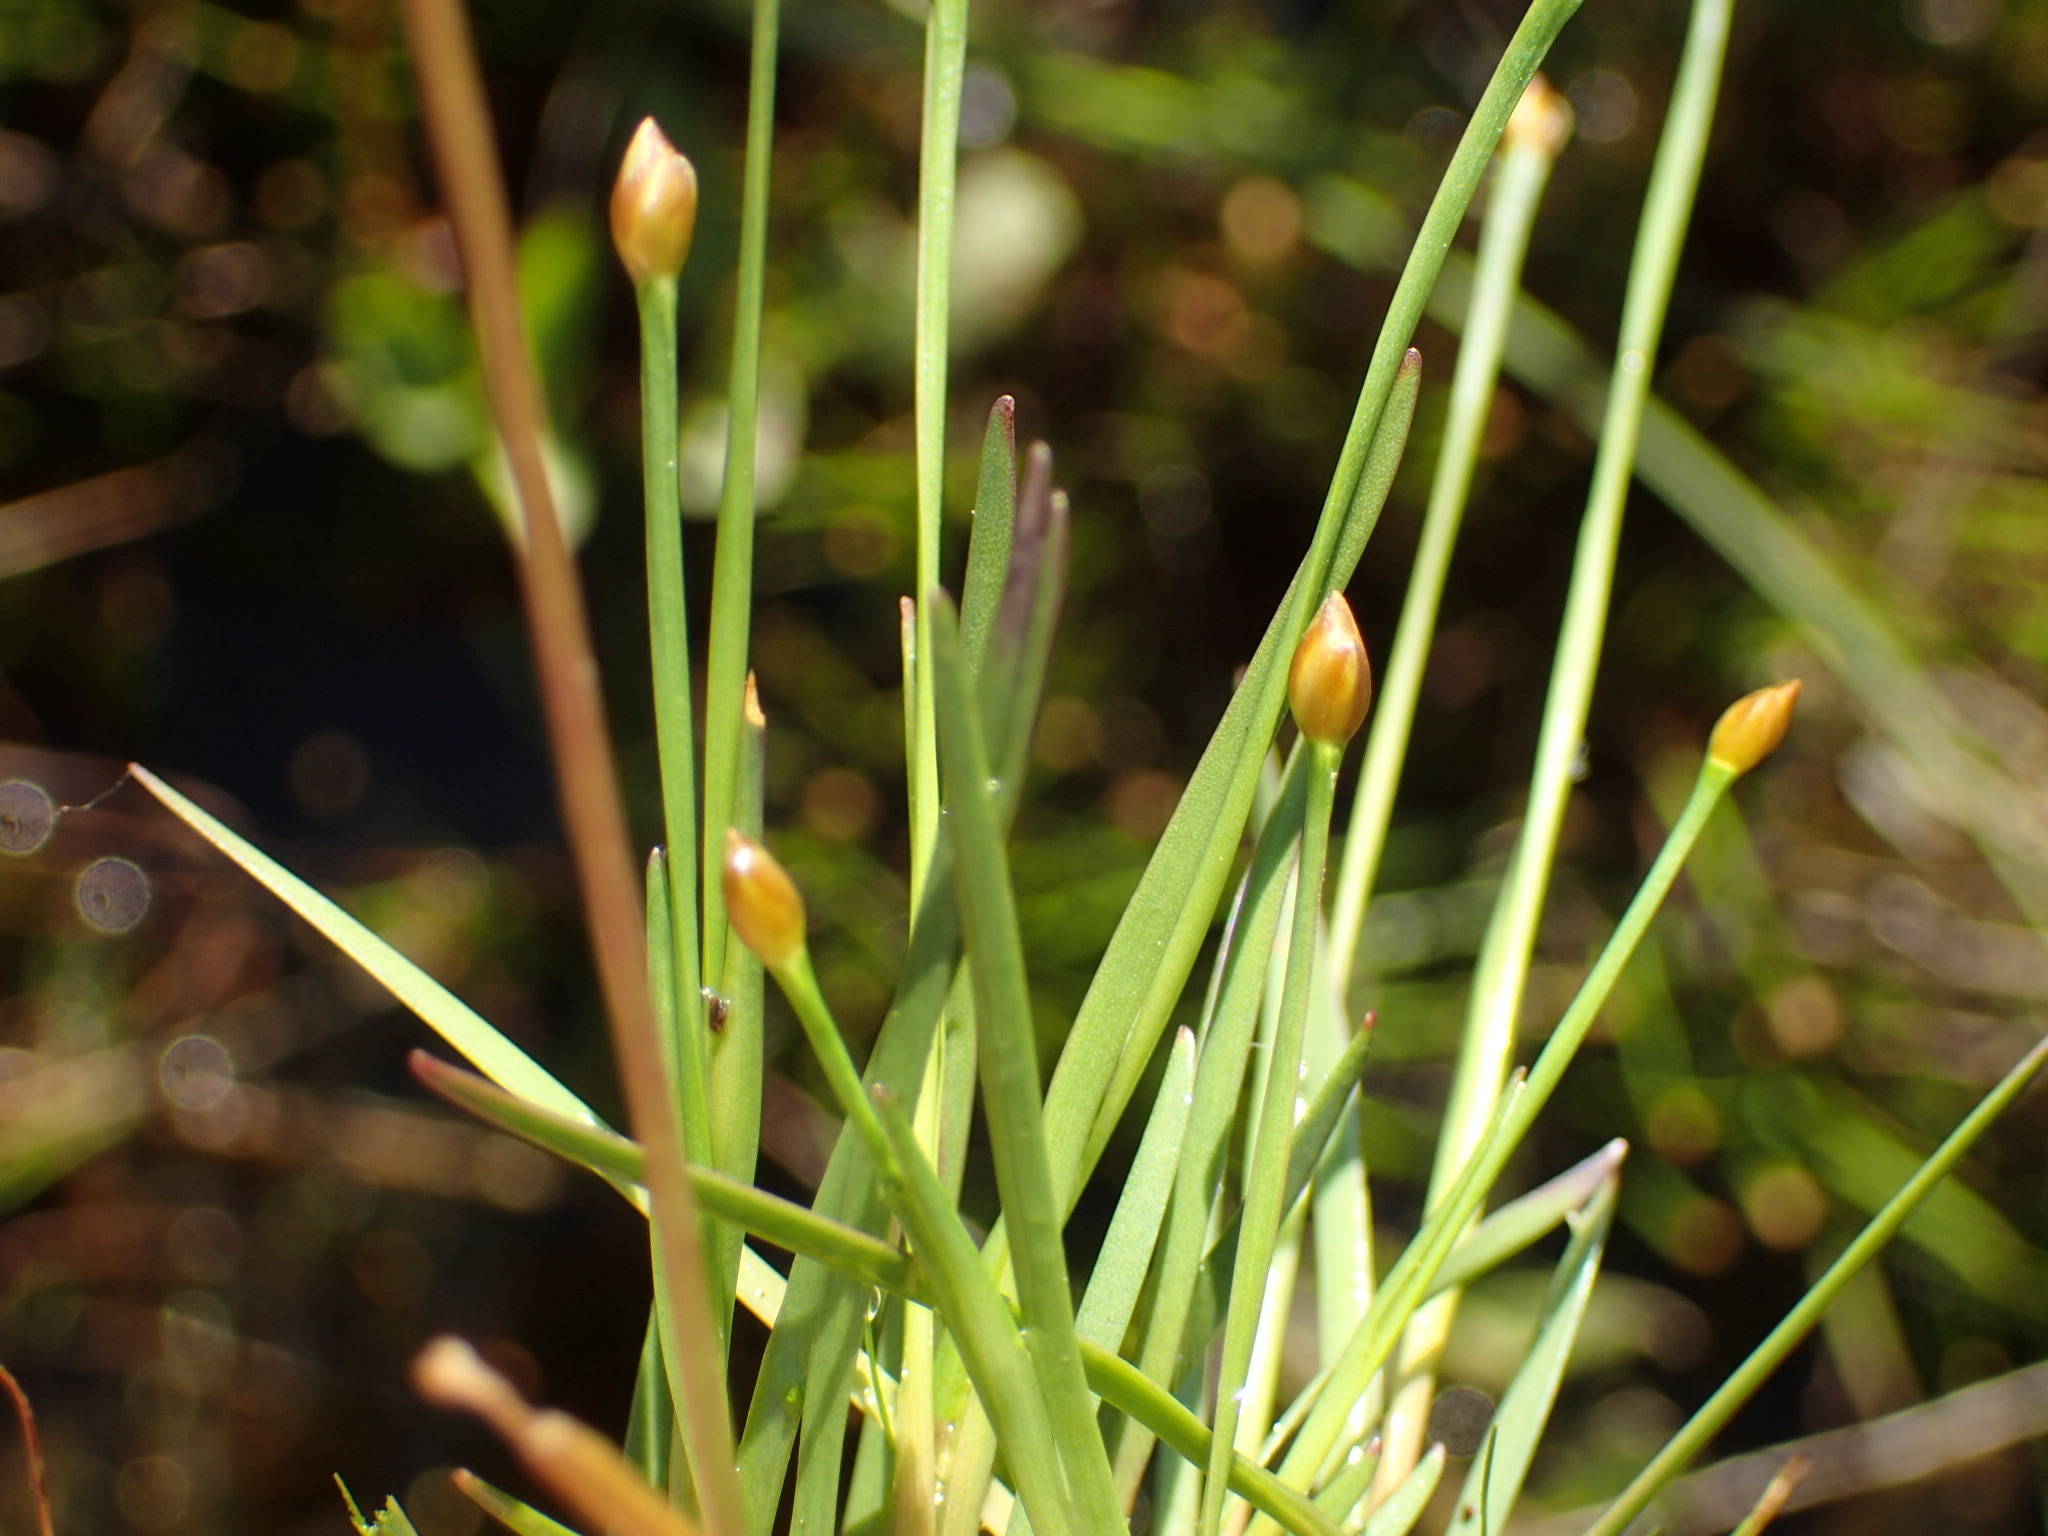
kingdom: Plantae
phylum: Tracheophyta
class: Liliopsida
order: Poales
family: Xyridaceae
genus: Xyris
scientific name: Xyris montana
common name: Northern yellow-eyed-grass
